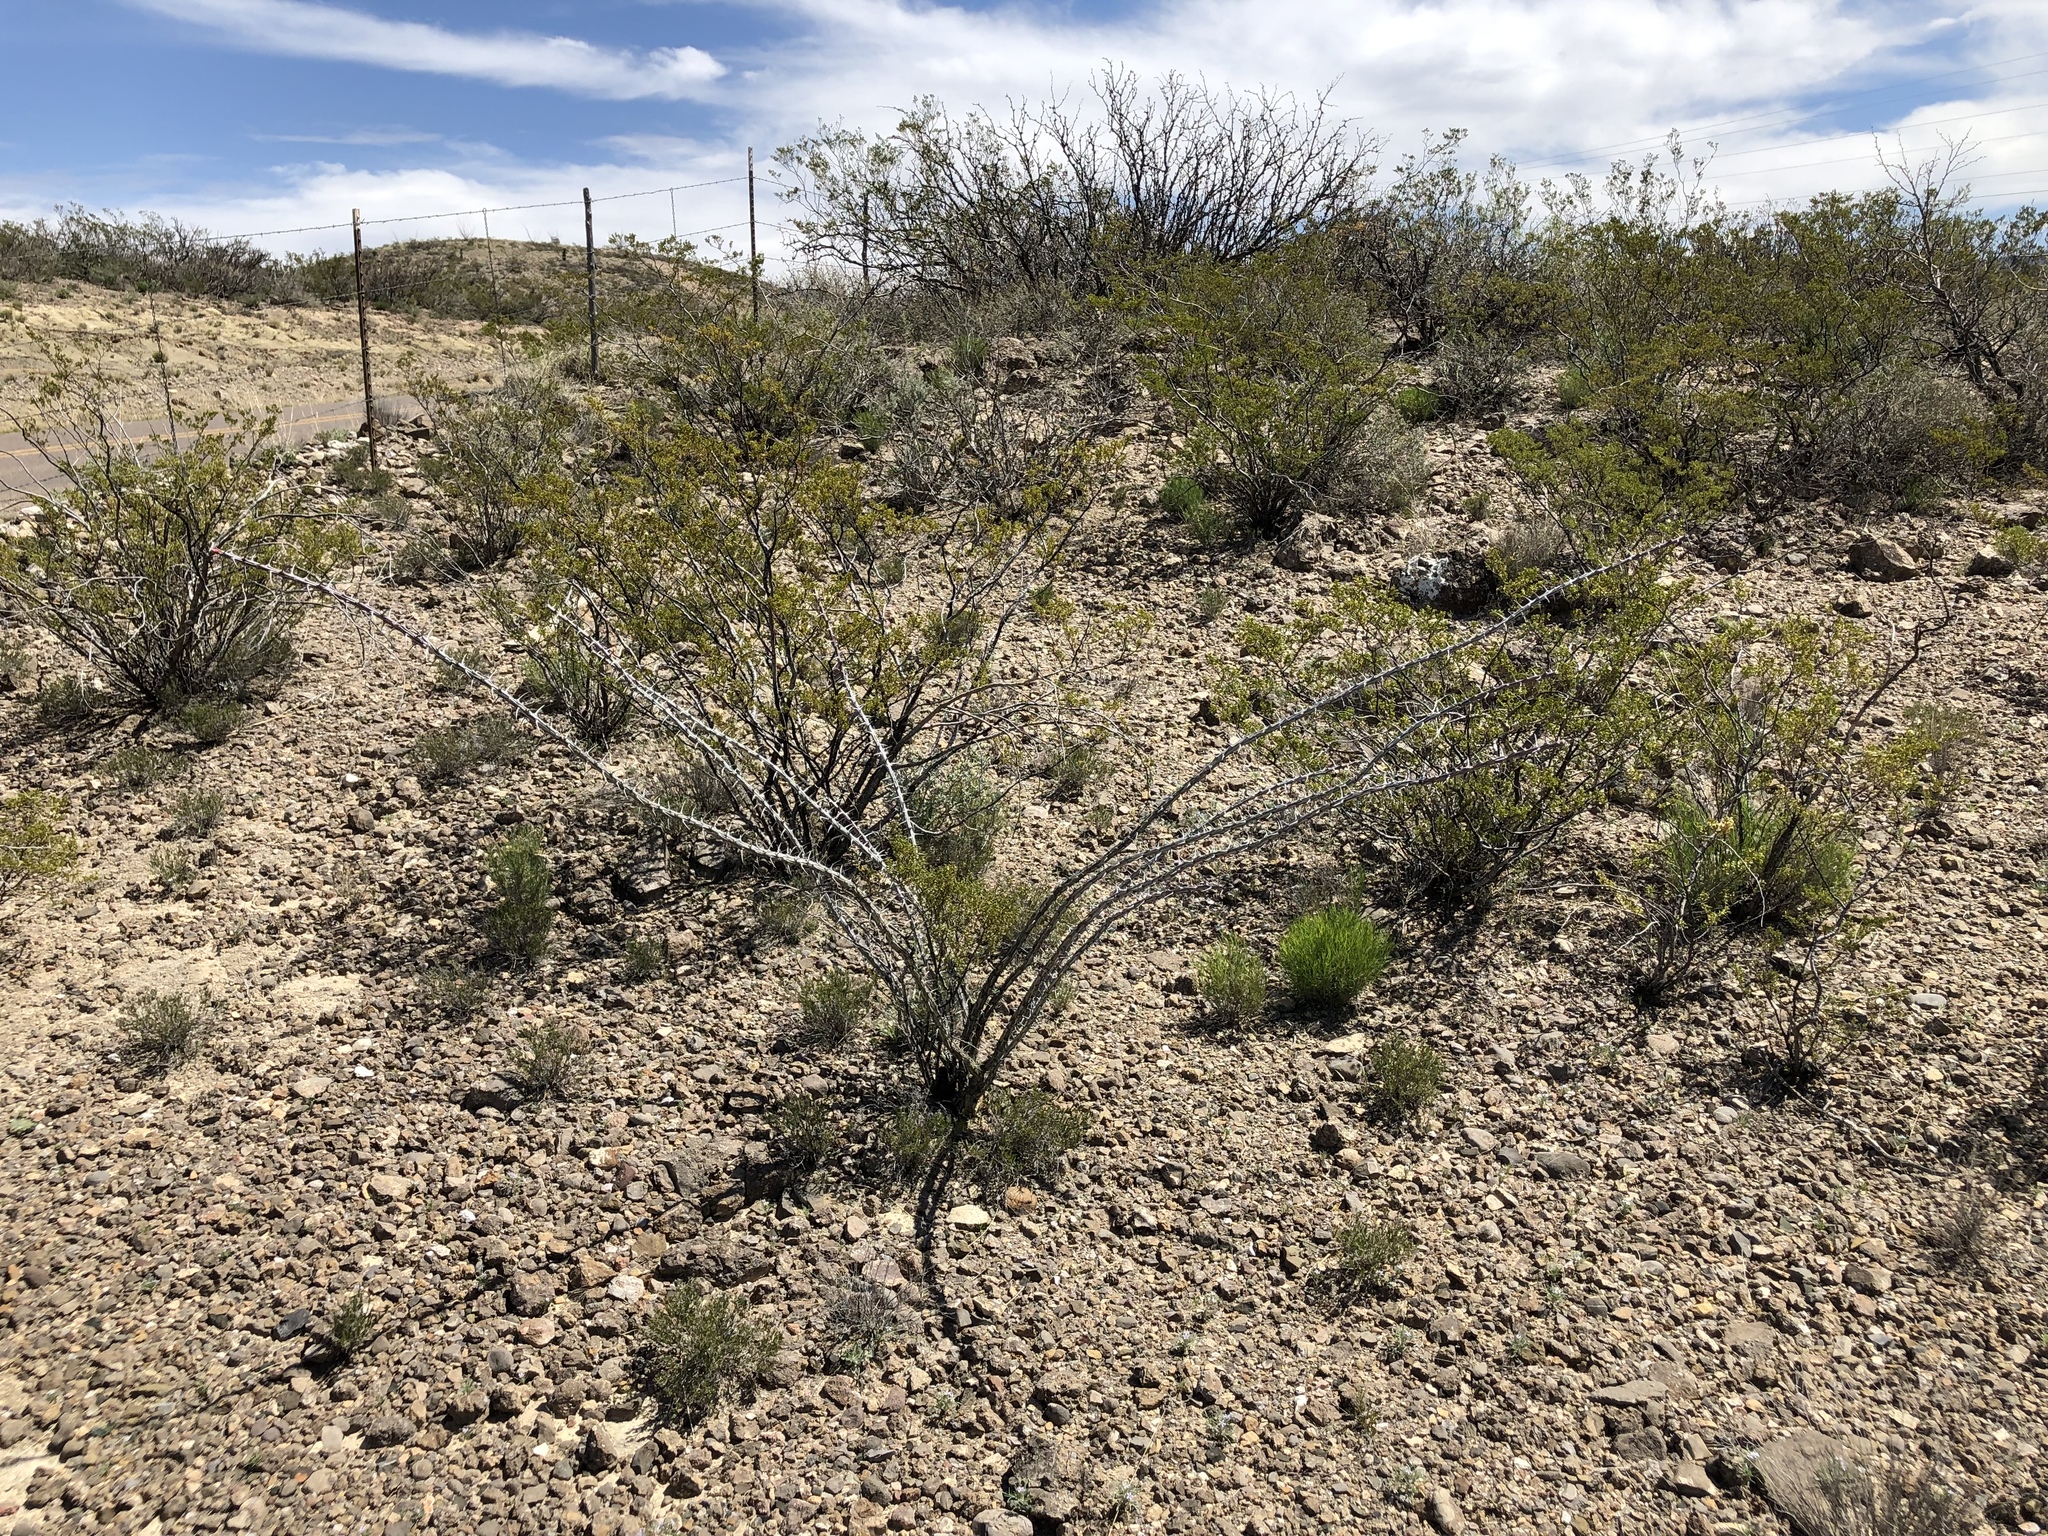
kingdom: Plantae
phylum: Tracheophyta
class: Magnoliopsida
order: Ericales
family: Fouquieriaceae
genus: Fouquieria
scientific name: Fouquieria splendens
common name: Vine-cactus
